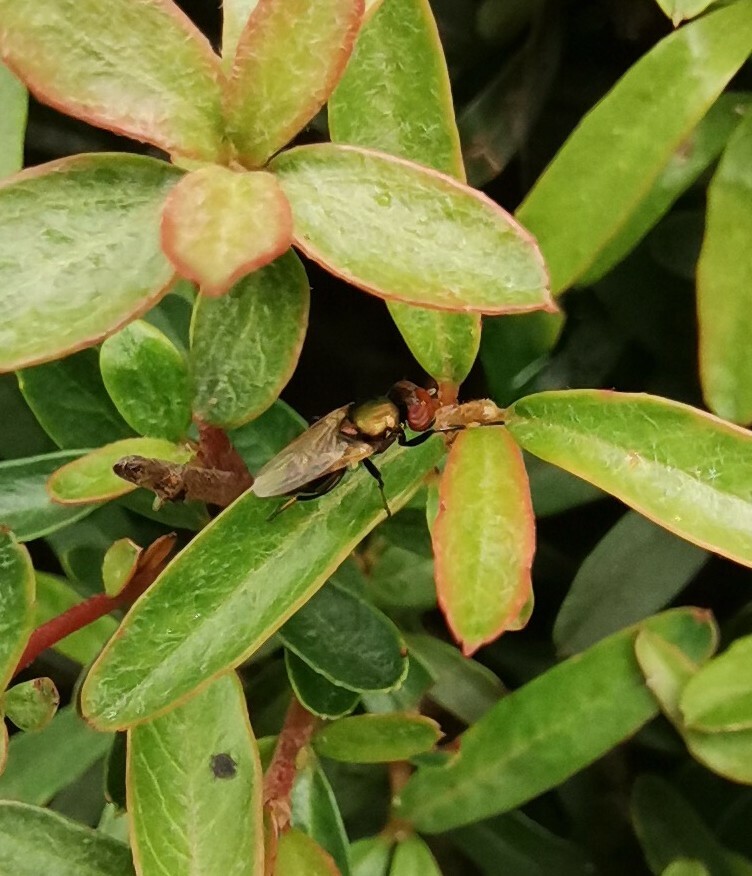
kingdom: Animalia
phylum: Arthropoda
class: Insecta
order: Diptera
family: Ulidiidae
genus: Physiphora
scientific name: Physiphora alceae
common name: Picture-winged fly
